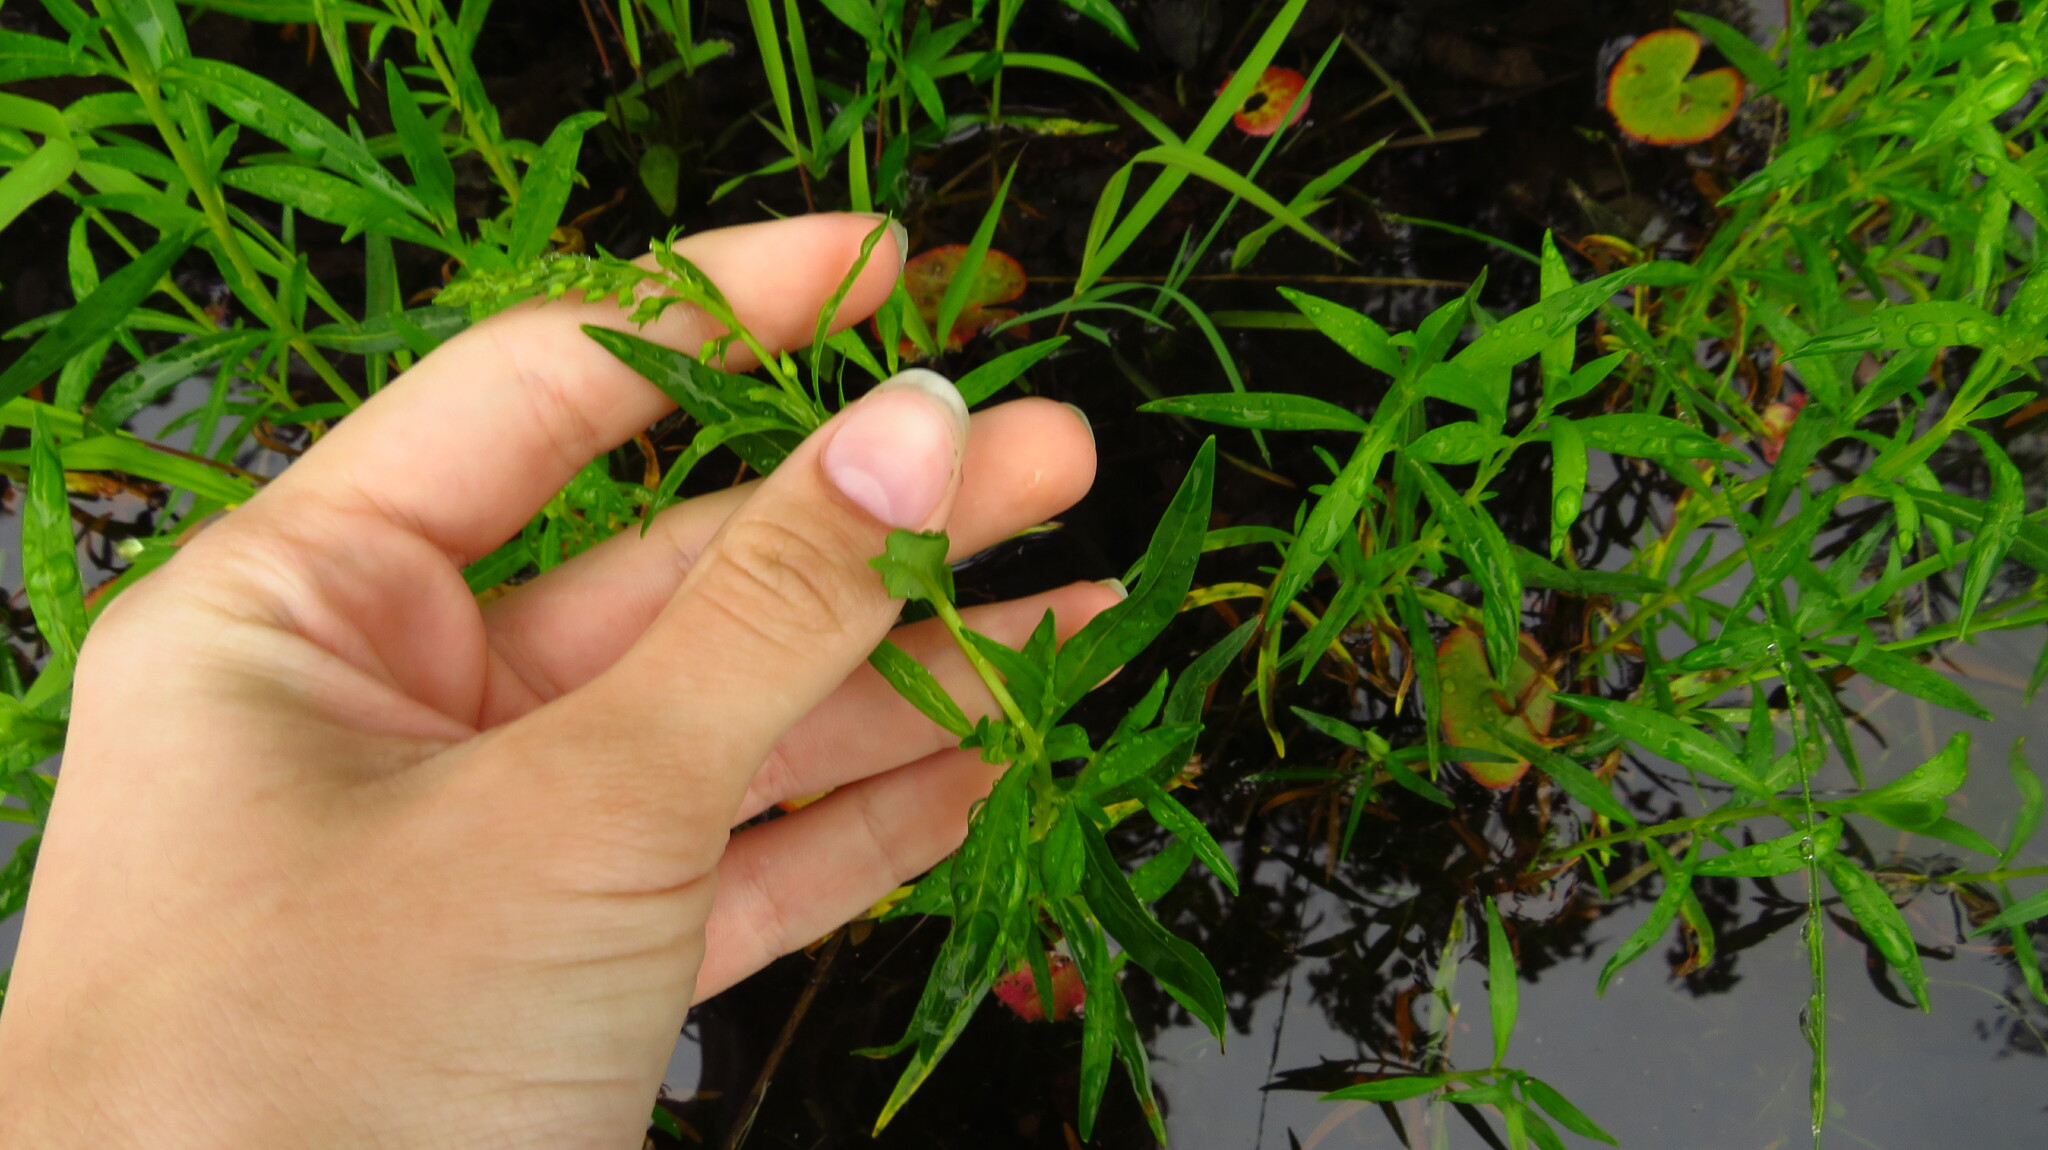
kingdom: Plantae
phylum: Tracheophyta
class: Magnoliopsida
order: Ericales
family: Primulaceae
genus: Lysimachia
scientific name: Lysimachia terrestris
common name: Lake loosestrife
